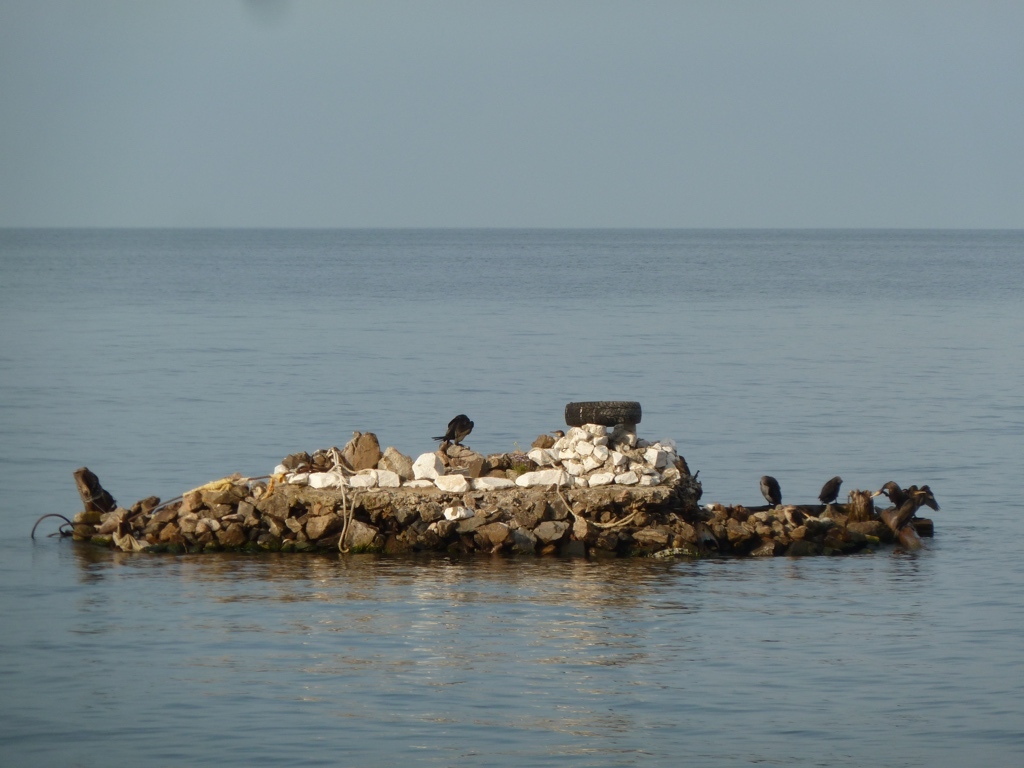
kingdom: Animalia
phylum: Chordata
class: Aves
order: Suliformes
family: Phalacrocoracidae
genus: Phalacrocorax
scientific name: Phalacrocorax carbo
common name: Great cormorant
